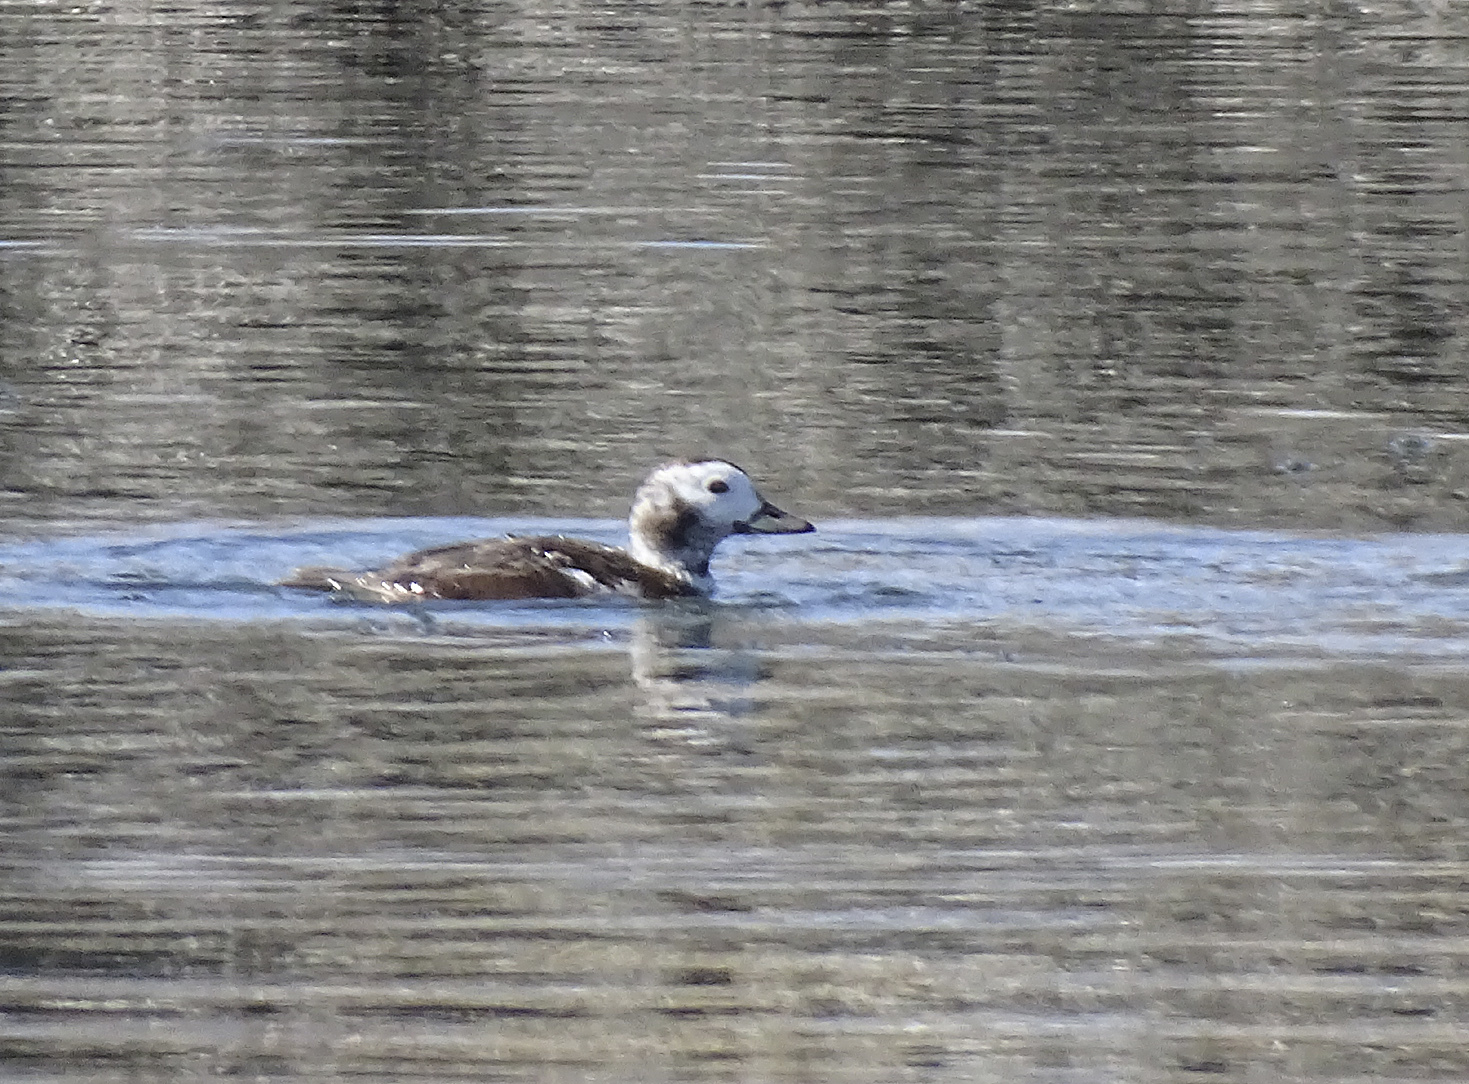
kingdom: Animalia
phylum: Chordata
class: Aves
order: Anseriformes
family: Anatidae
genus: Clangula
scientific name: Clangula hyemalis
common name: Long-tailed duck
